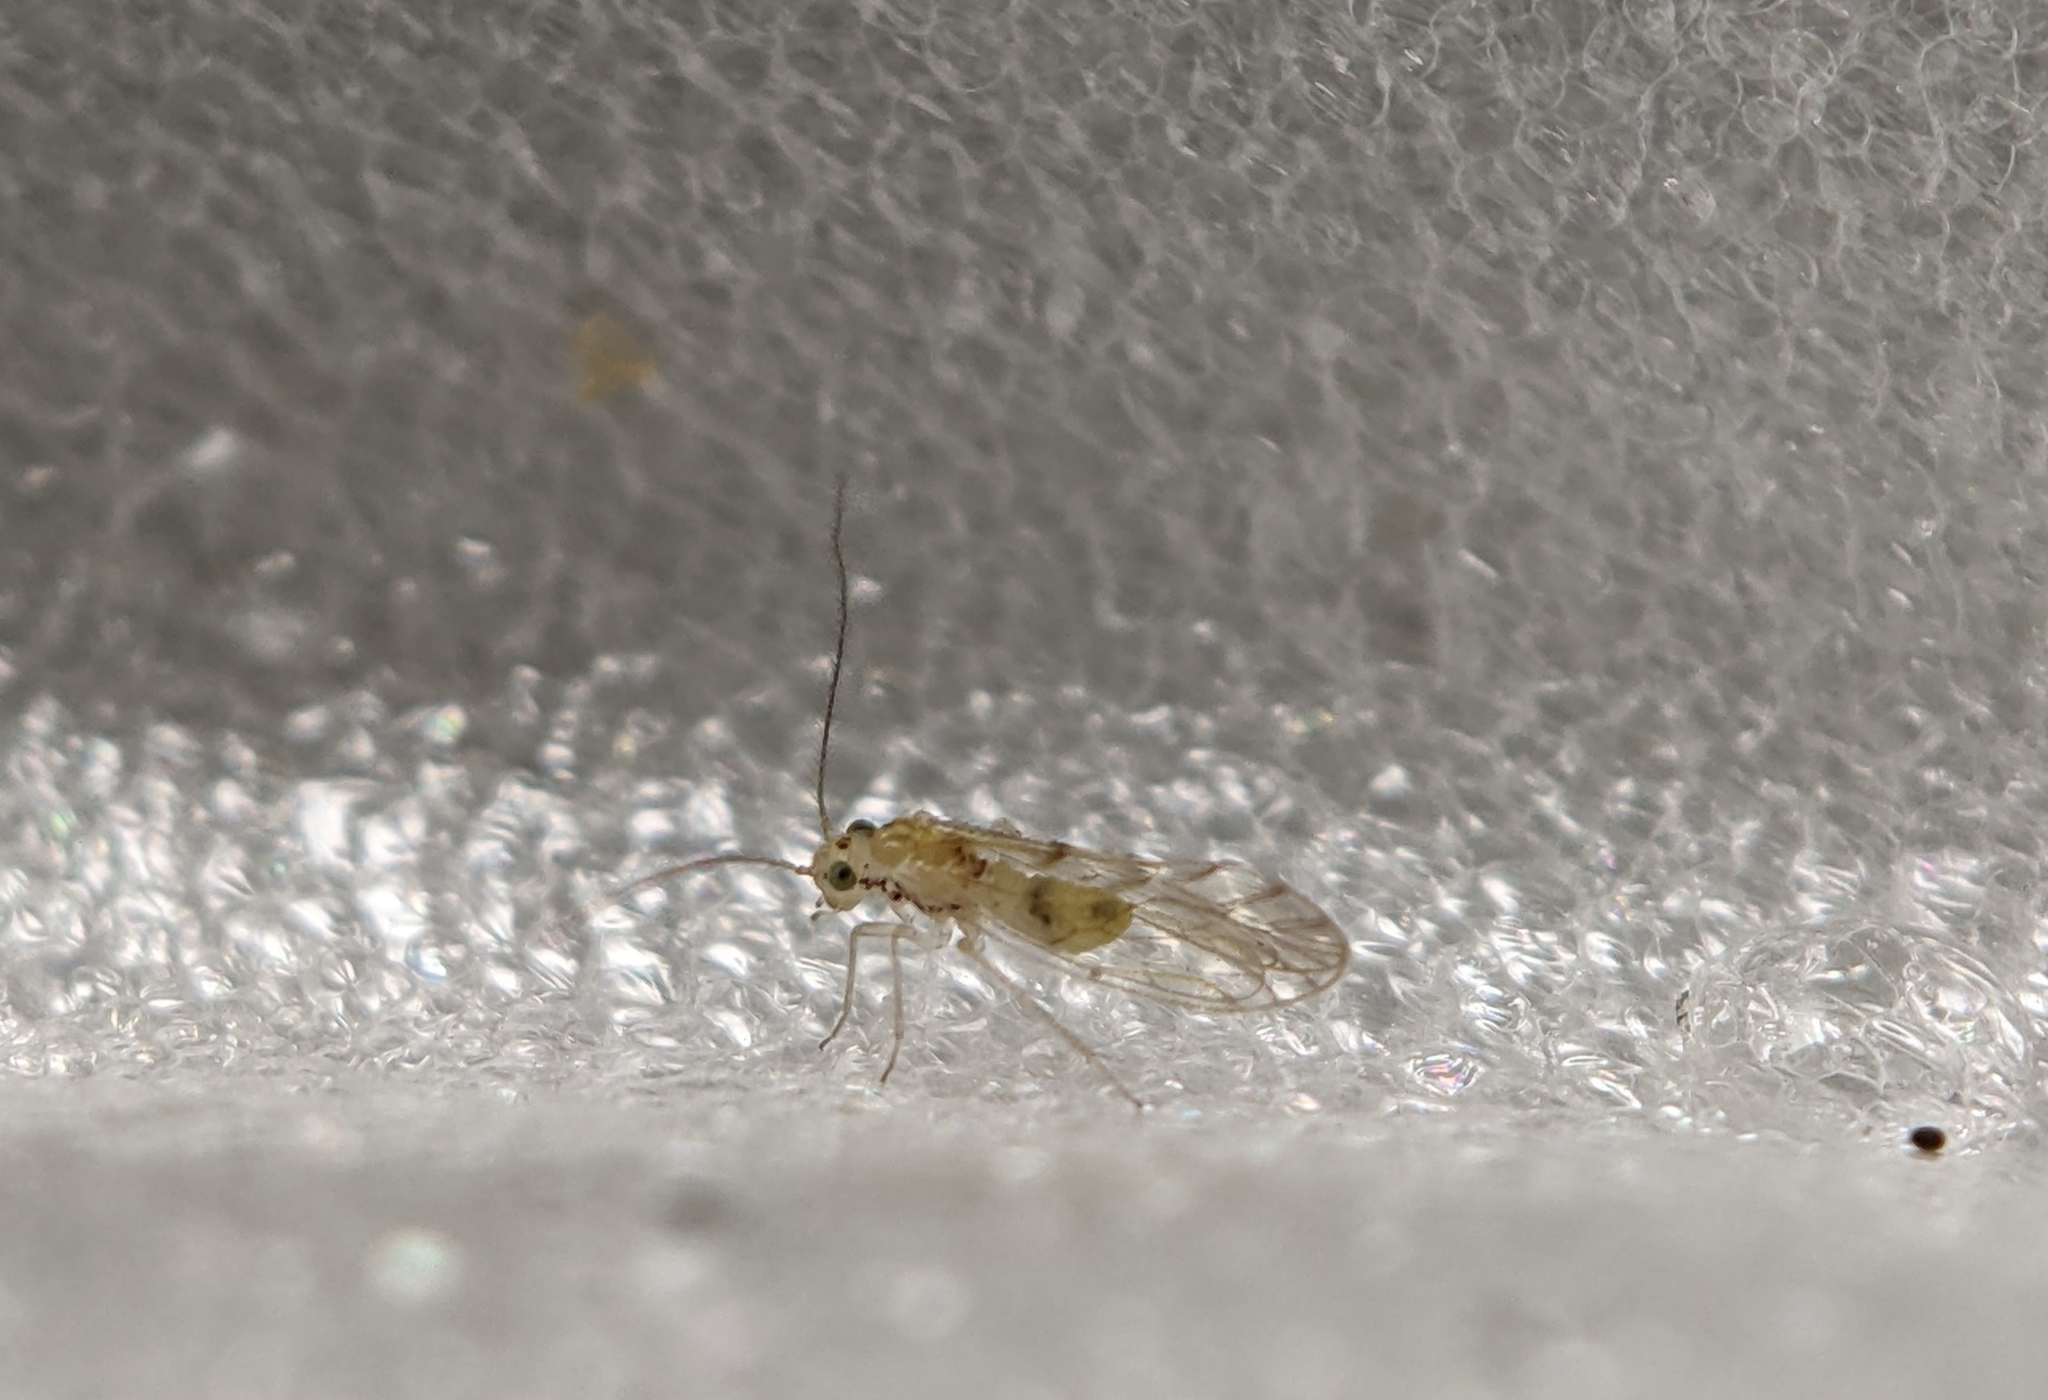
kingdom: Animalia
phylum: Arthropoda
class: Insecta
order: Psocodea
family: Trichopsocidae
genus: Trichopsocus
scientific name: Trichopsocus clarus
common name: Lash-faced psocid
